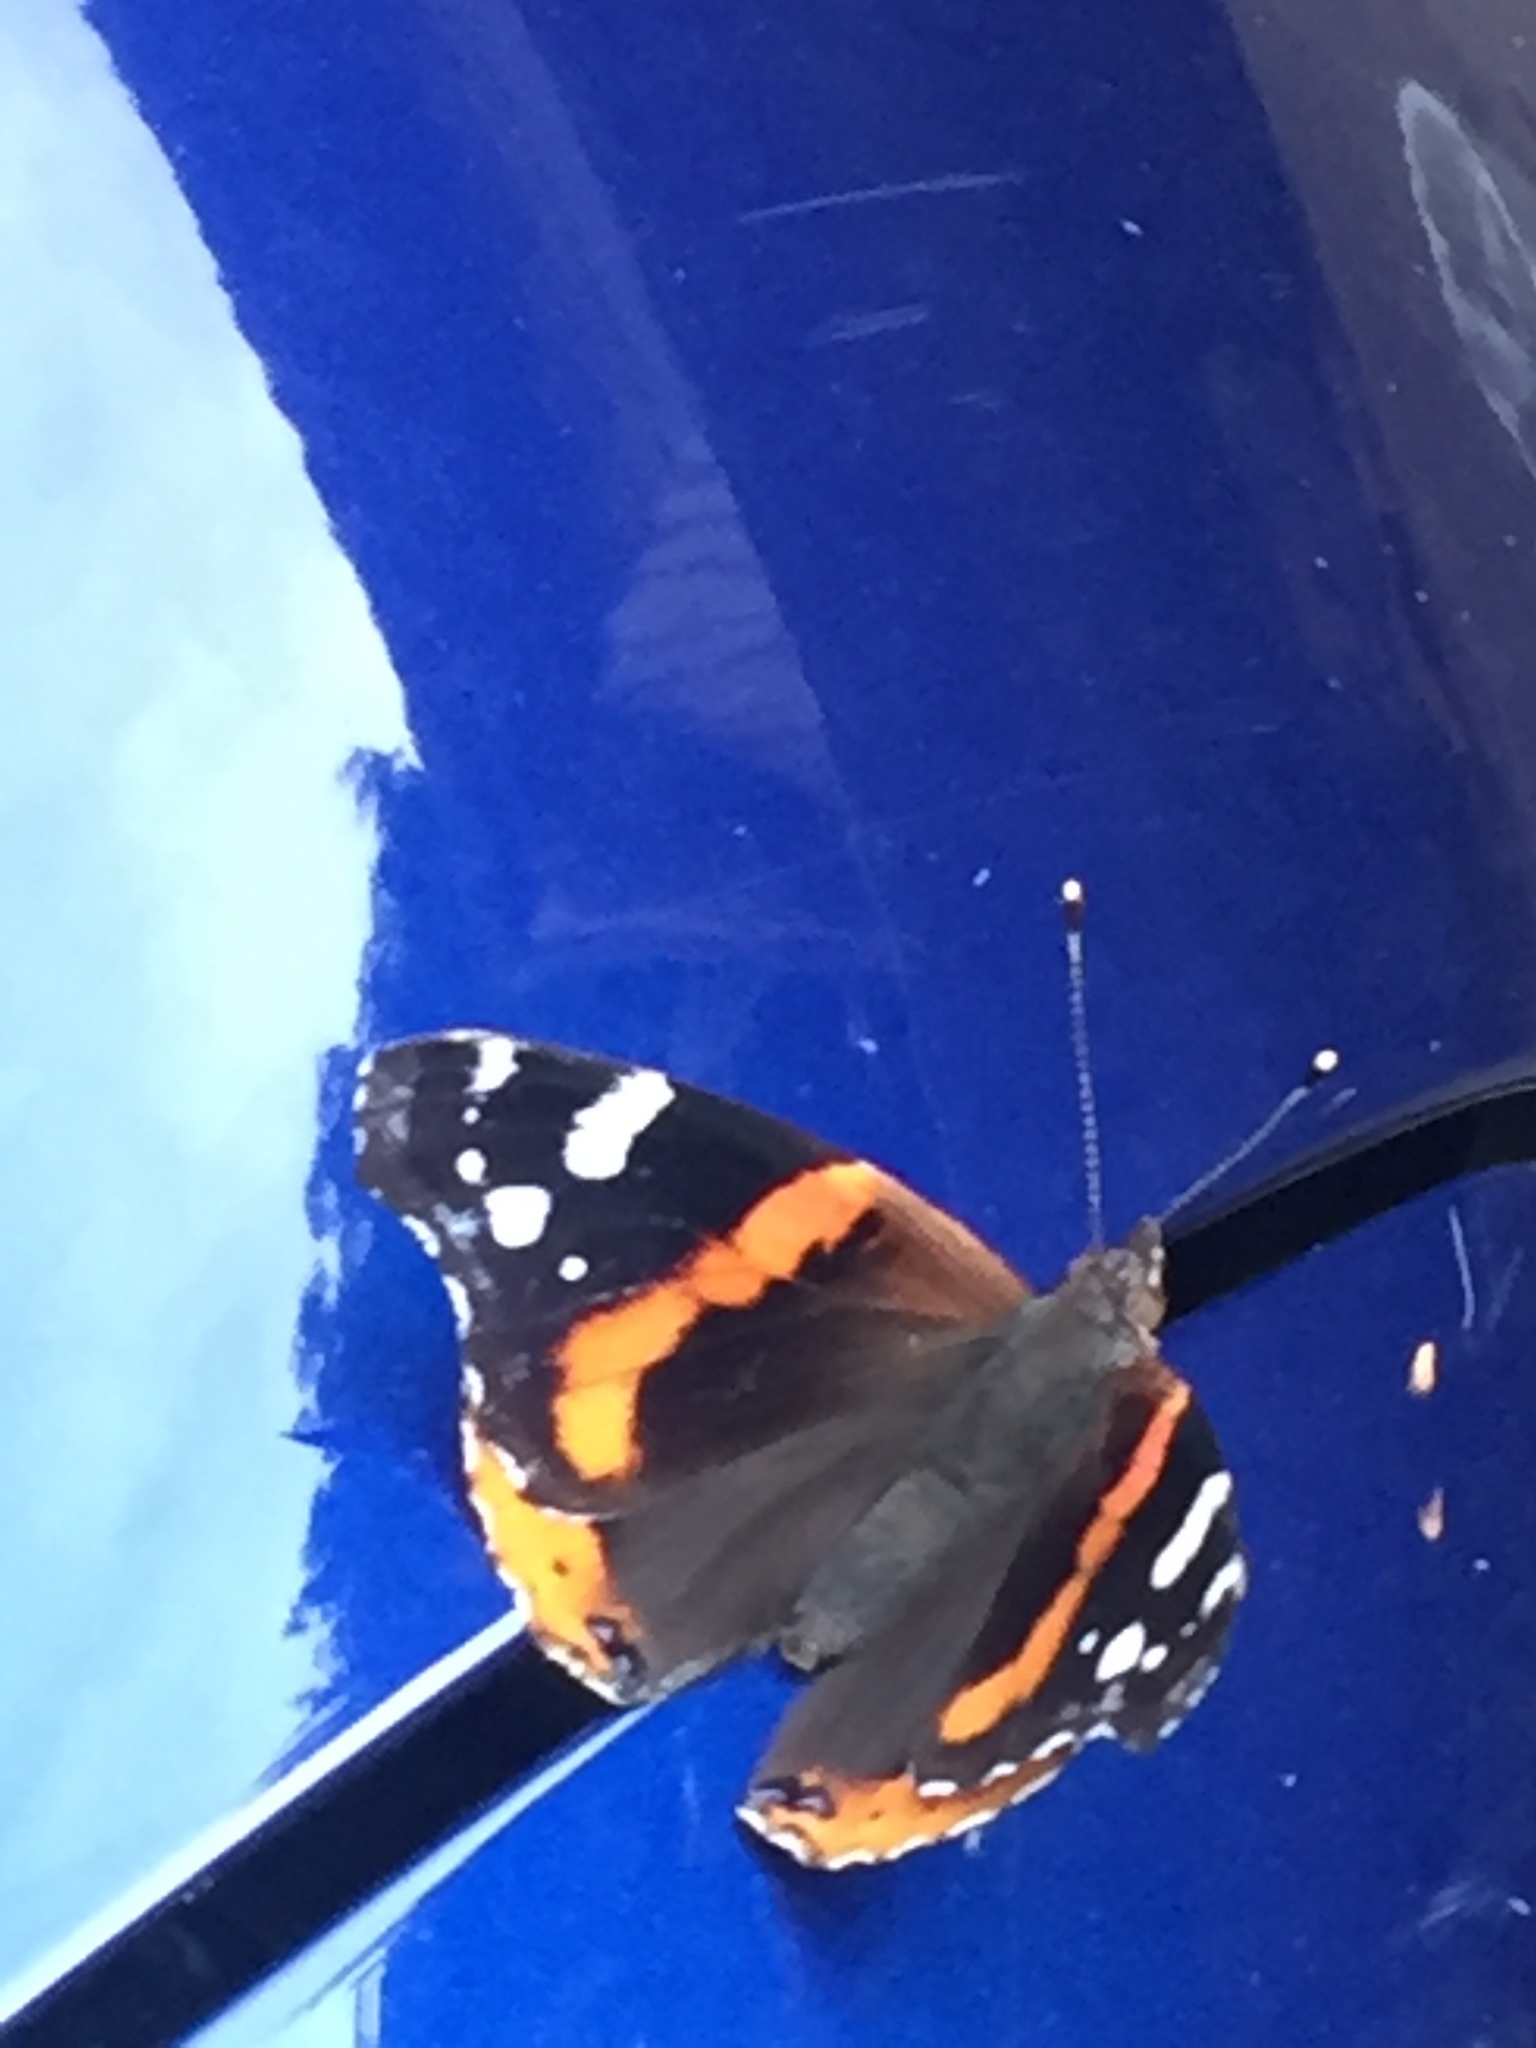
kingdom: Animalia
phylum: Arthropoda
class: Insecta
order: Lepidoptera
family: Nymphalidae
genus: Vanessa
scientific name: Vanessa atalanta
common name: Red admiral
